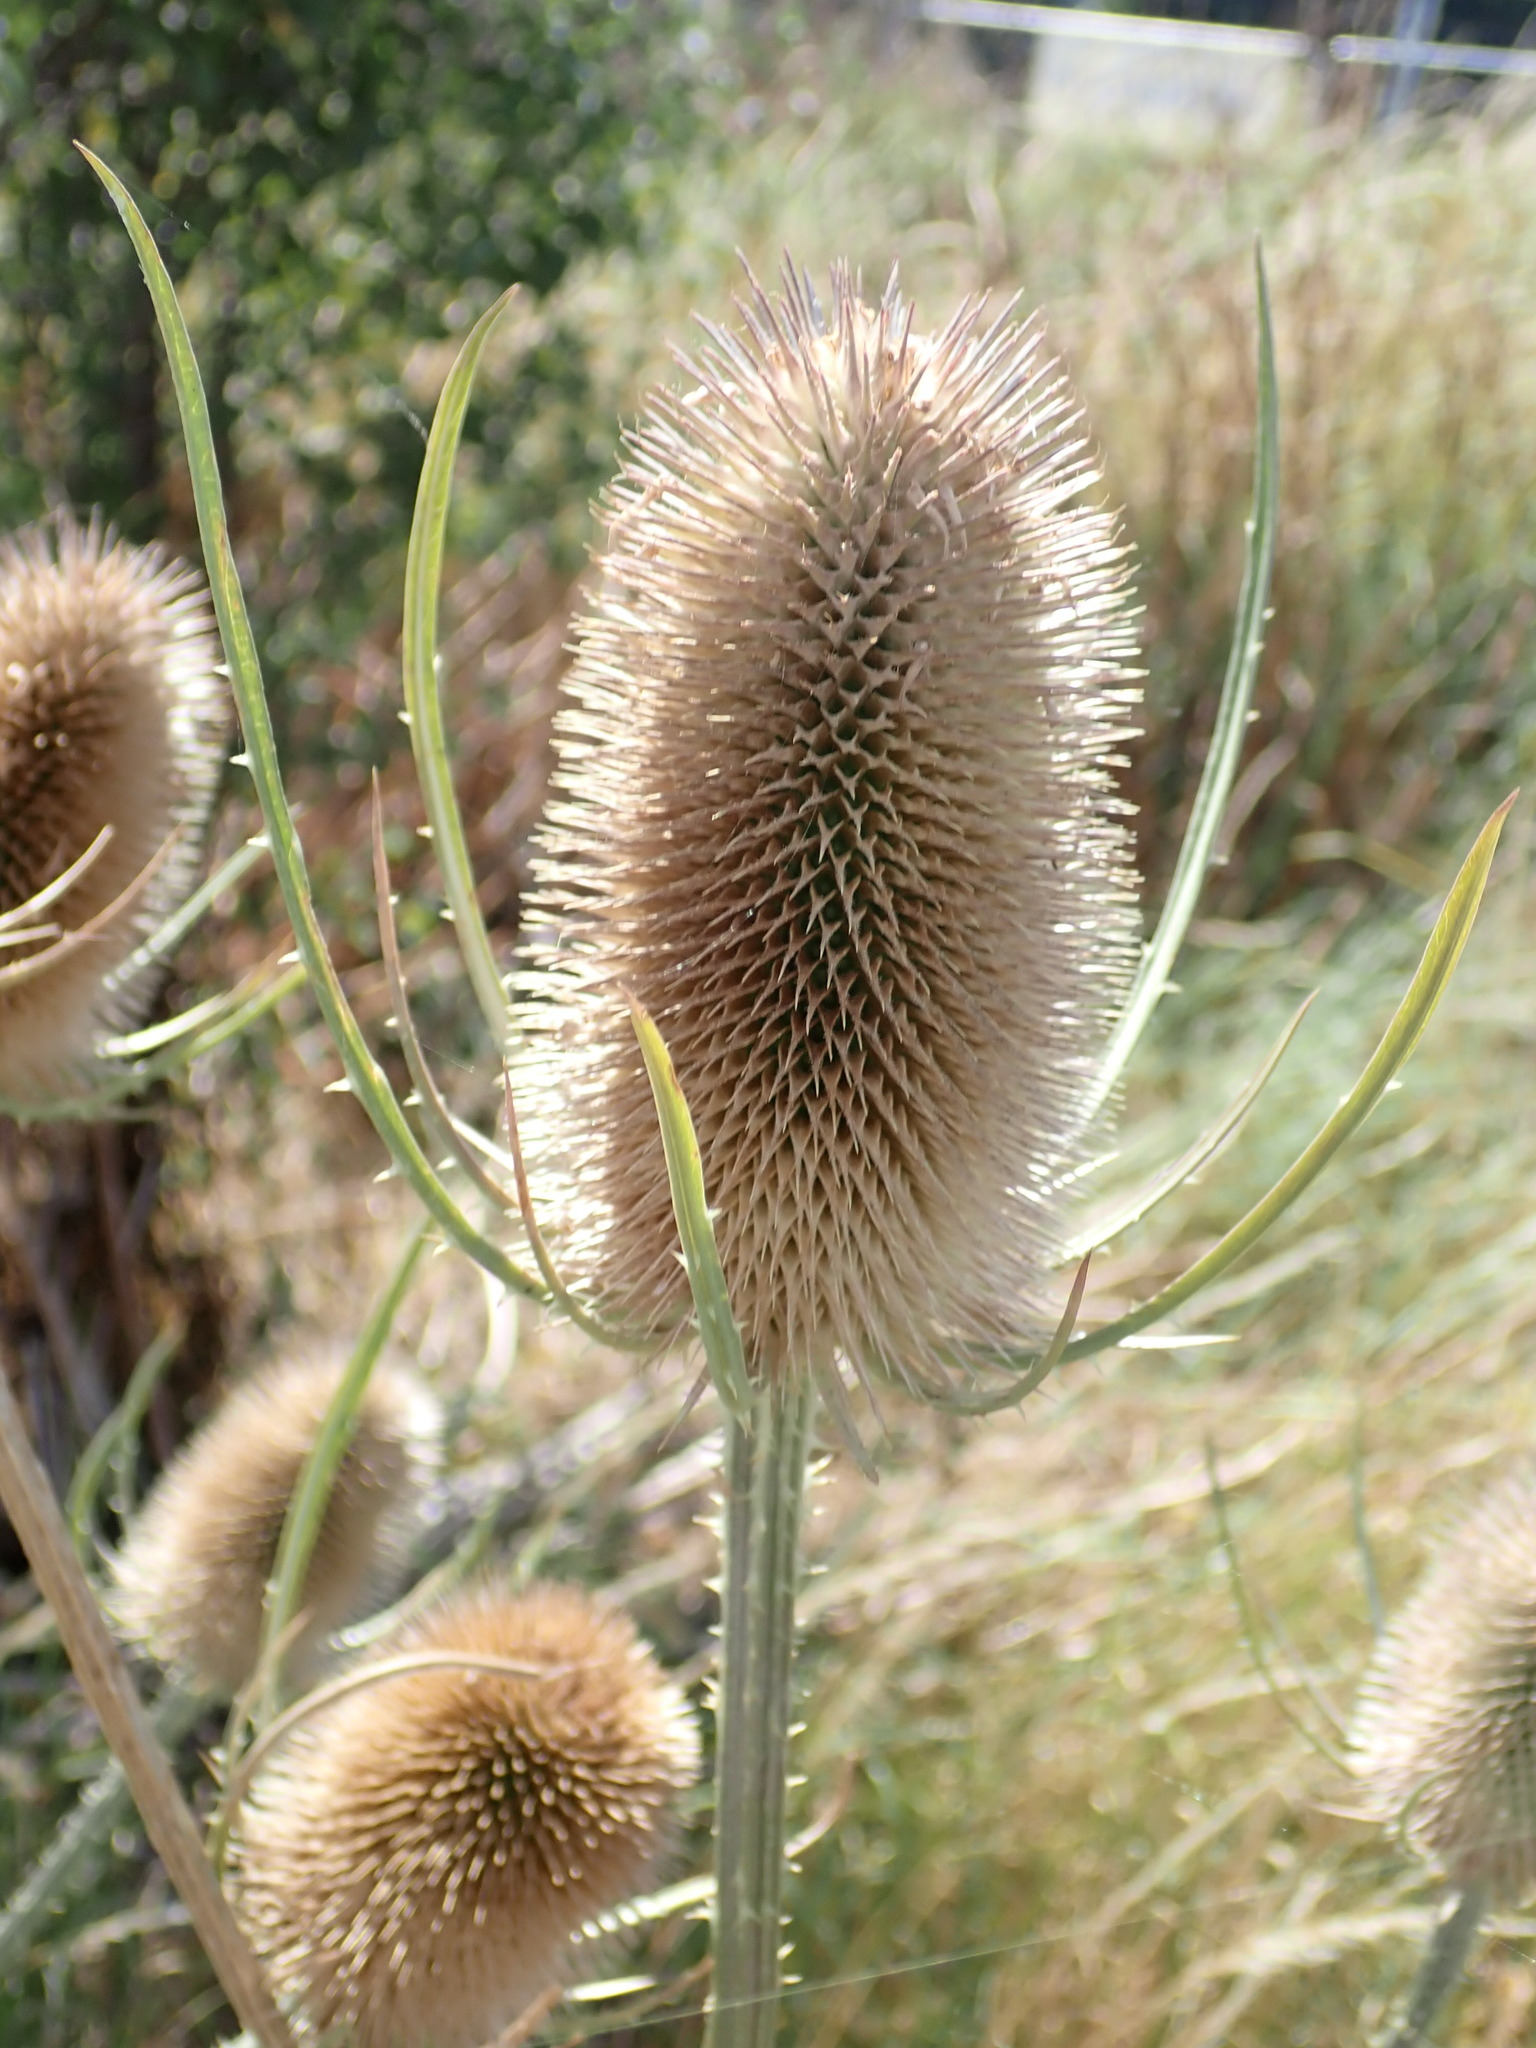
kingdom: Plantae
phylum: Tracheophyta
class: Magnoliopsida
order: Dipsacales
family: Caprifoliaceae
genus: Dipsacus
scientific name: Dipsacus fullonum
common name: Teasel
